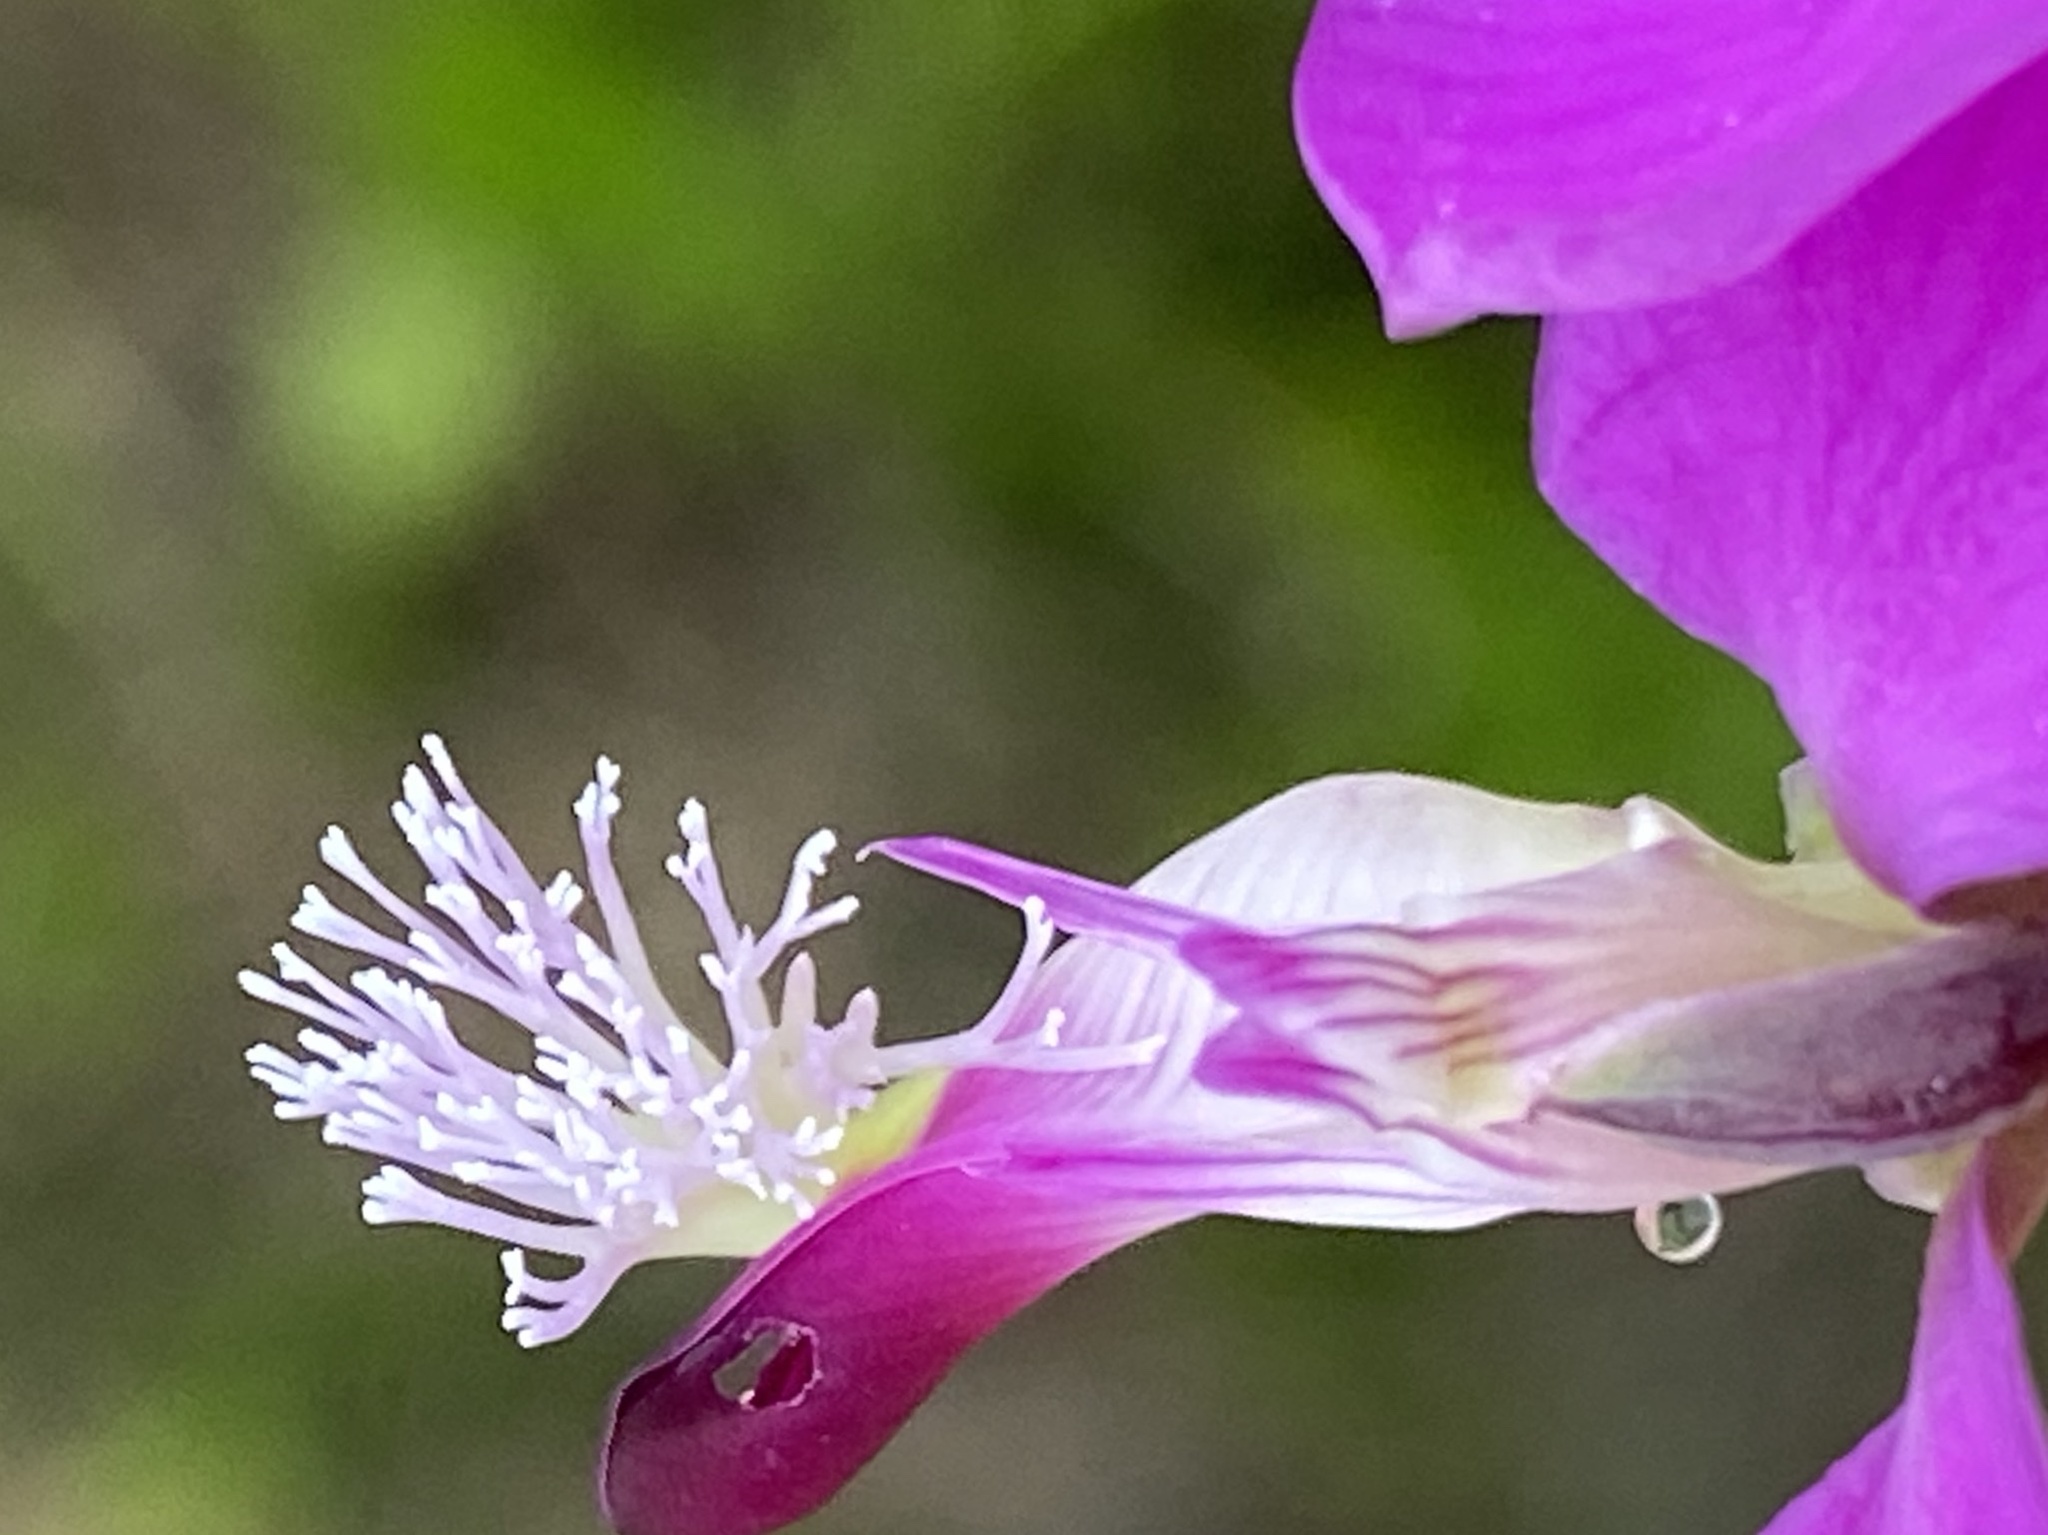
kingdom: Plantae
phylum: Tracheophyta
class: Magnoliopsida
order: Fabales
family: Polygalaceae
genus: Polygala
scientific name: Polygala fruticosa
